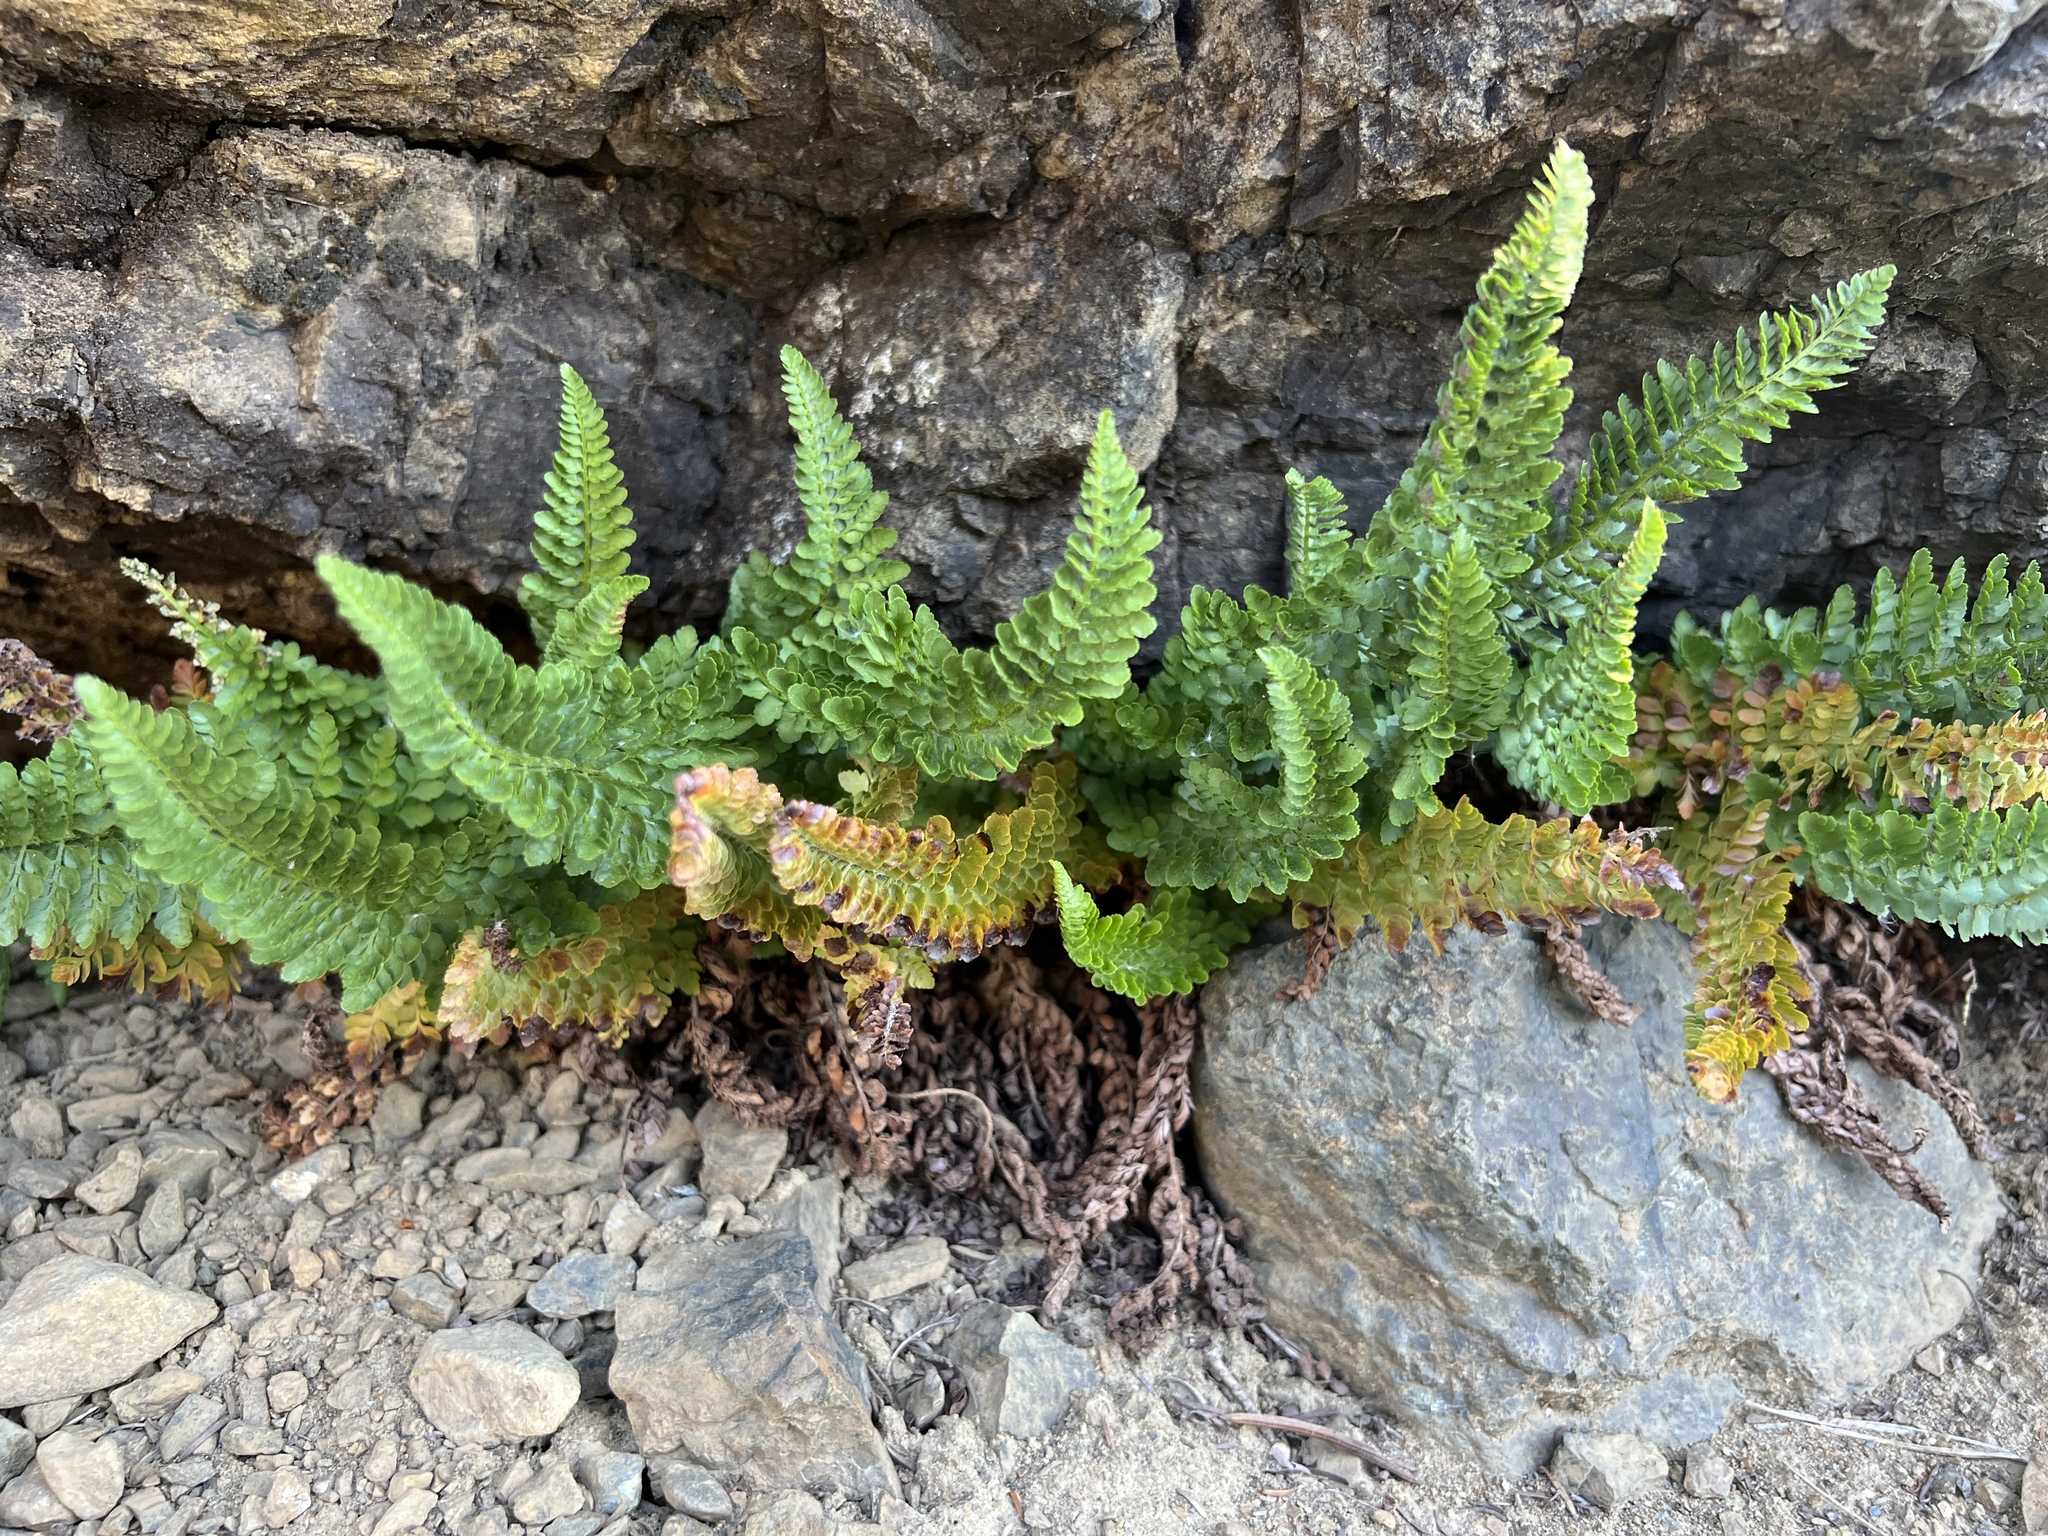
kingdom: Plantae
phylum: Tracheophyta
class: Polypodiopsida
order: Polypodiales
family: Dryopteridaceae
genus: Polystichum
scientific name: Polystichum lemmonii
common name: Lemmon's holly fern
